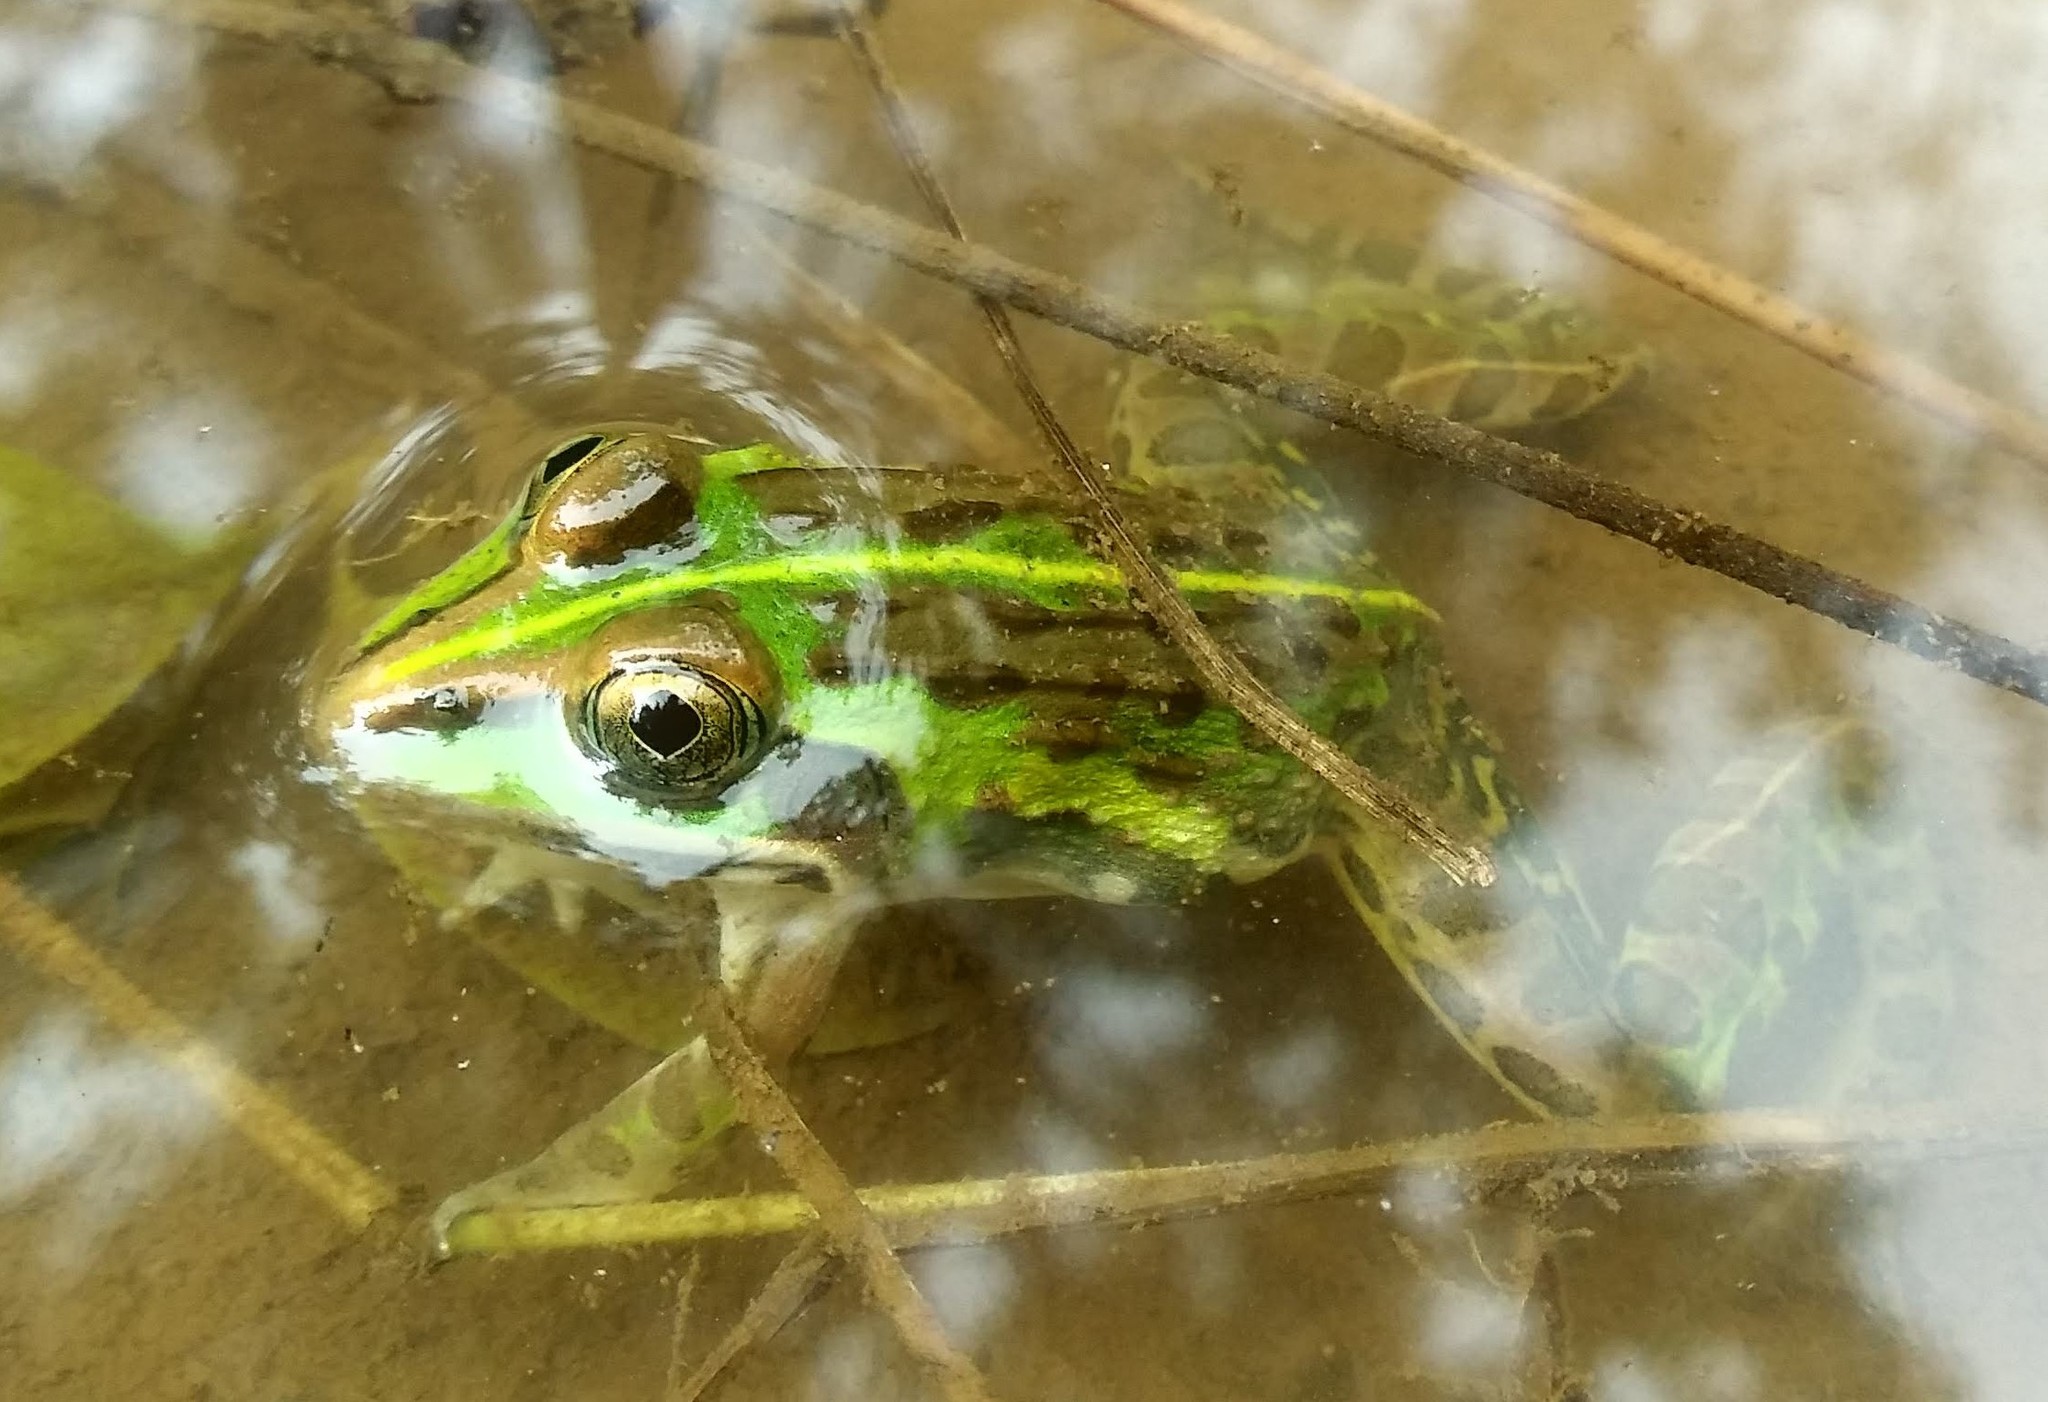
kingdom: Animalia
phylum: Chordata
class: Amphibia
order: Anura
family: Dicroglossidae
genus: Hoplobatrachus
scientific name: Hoplobatrachus tigerinus
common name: Indian bullfrog
